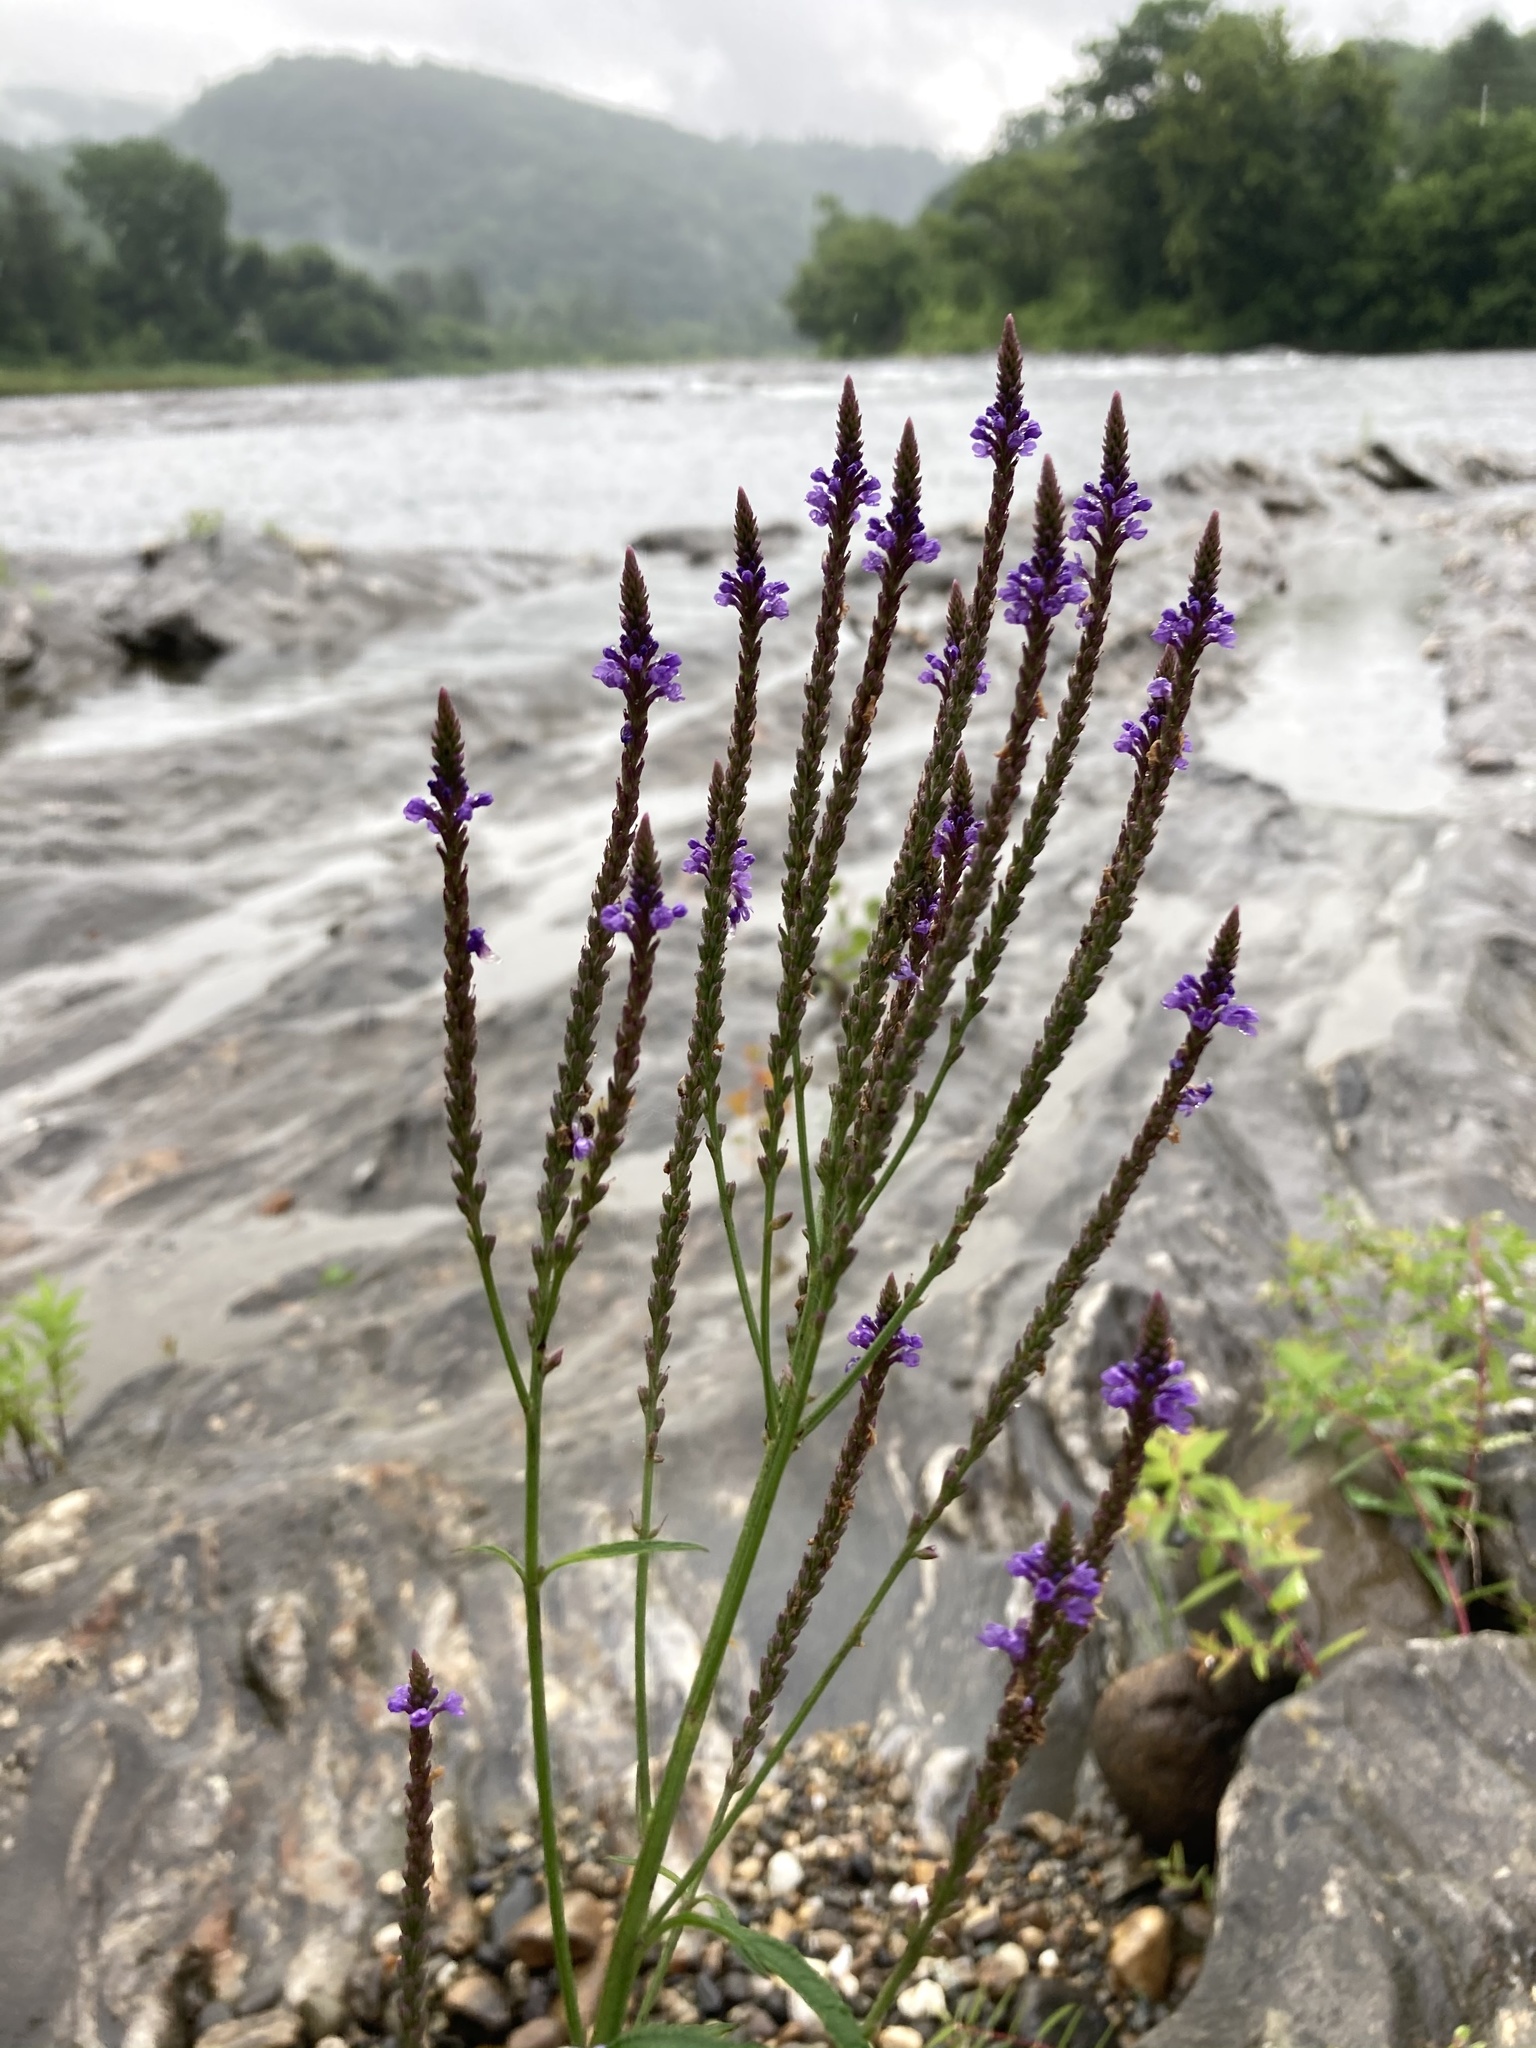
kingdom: Plantae
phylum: Tracheophyta
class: Magnoliopsida
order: Lamiales
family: Verbenaceae
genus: Verbena
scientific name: Verbena hastata
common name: American blue vervain
